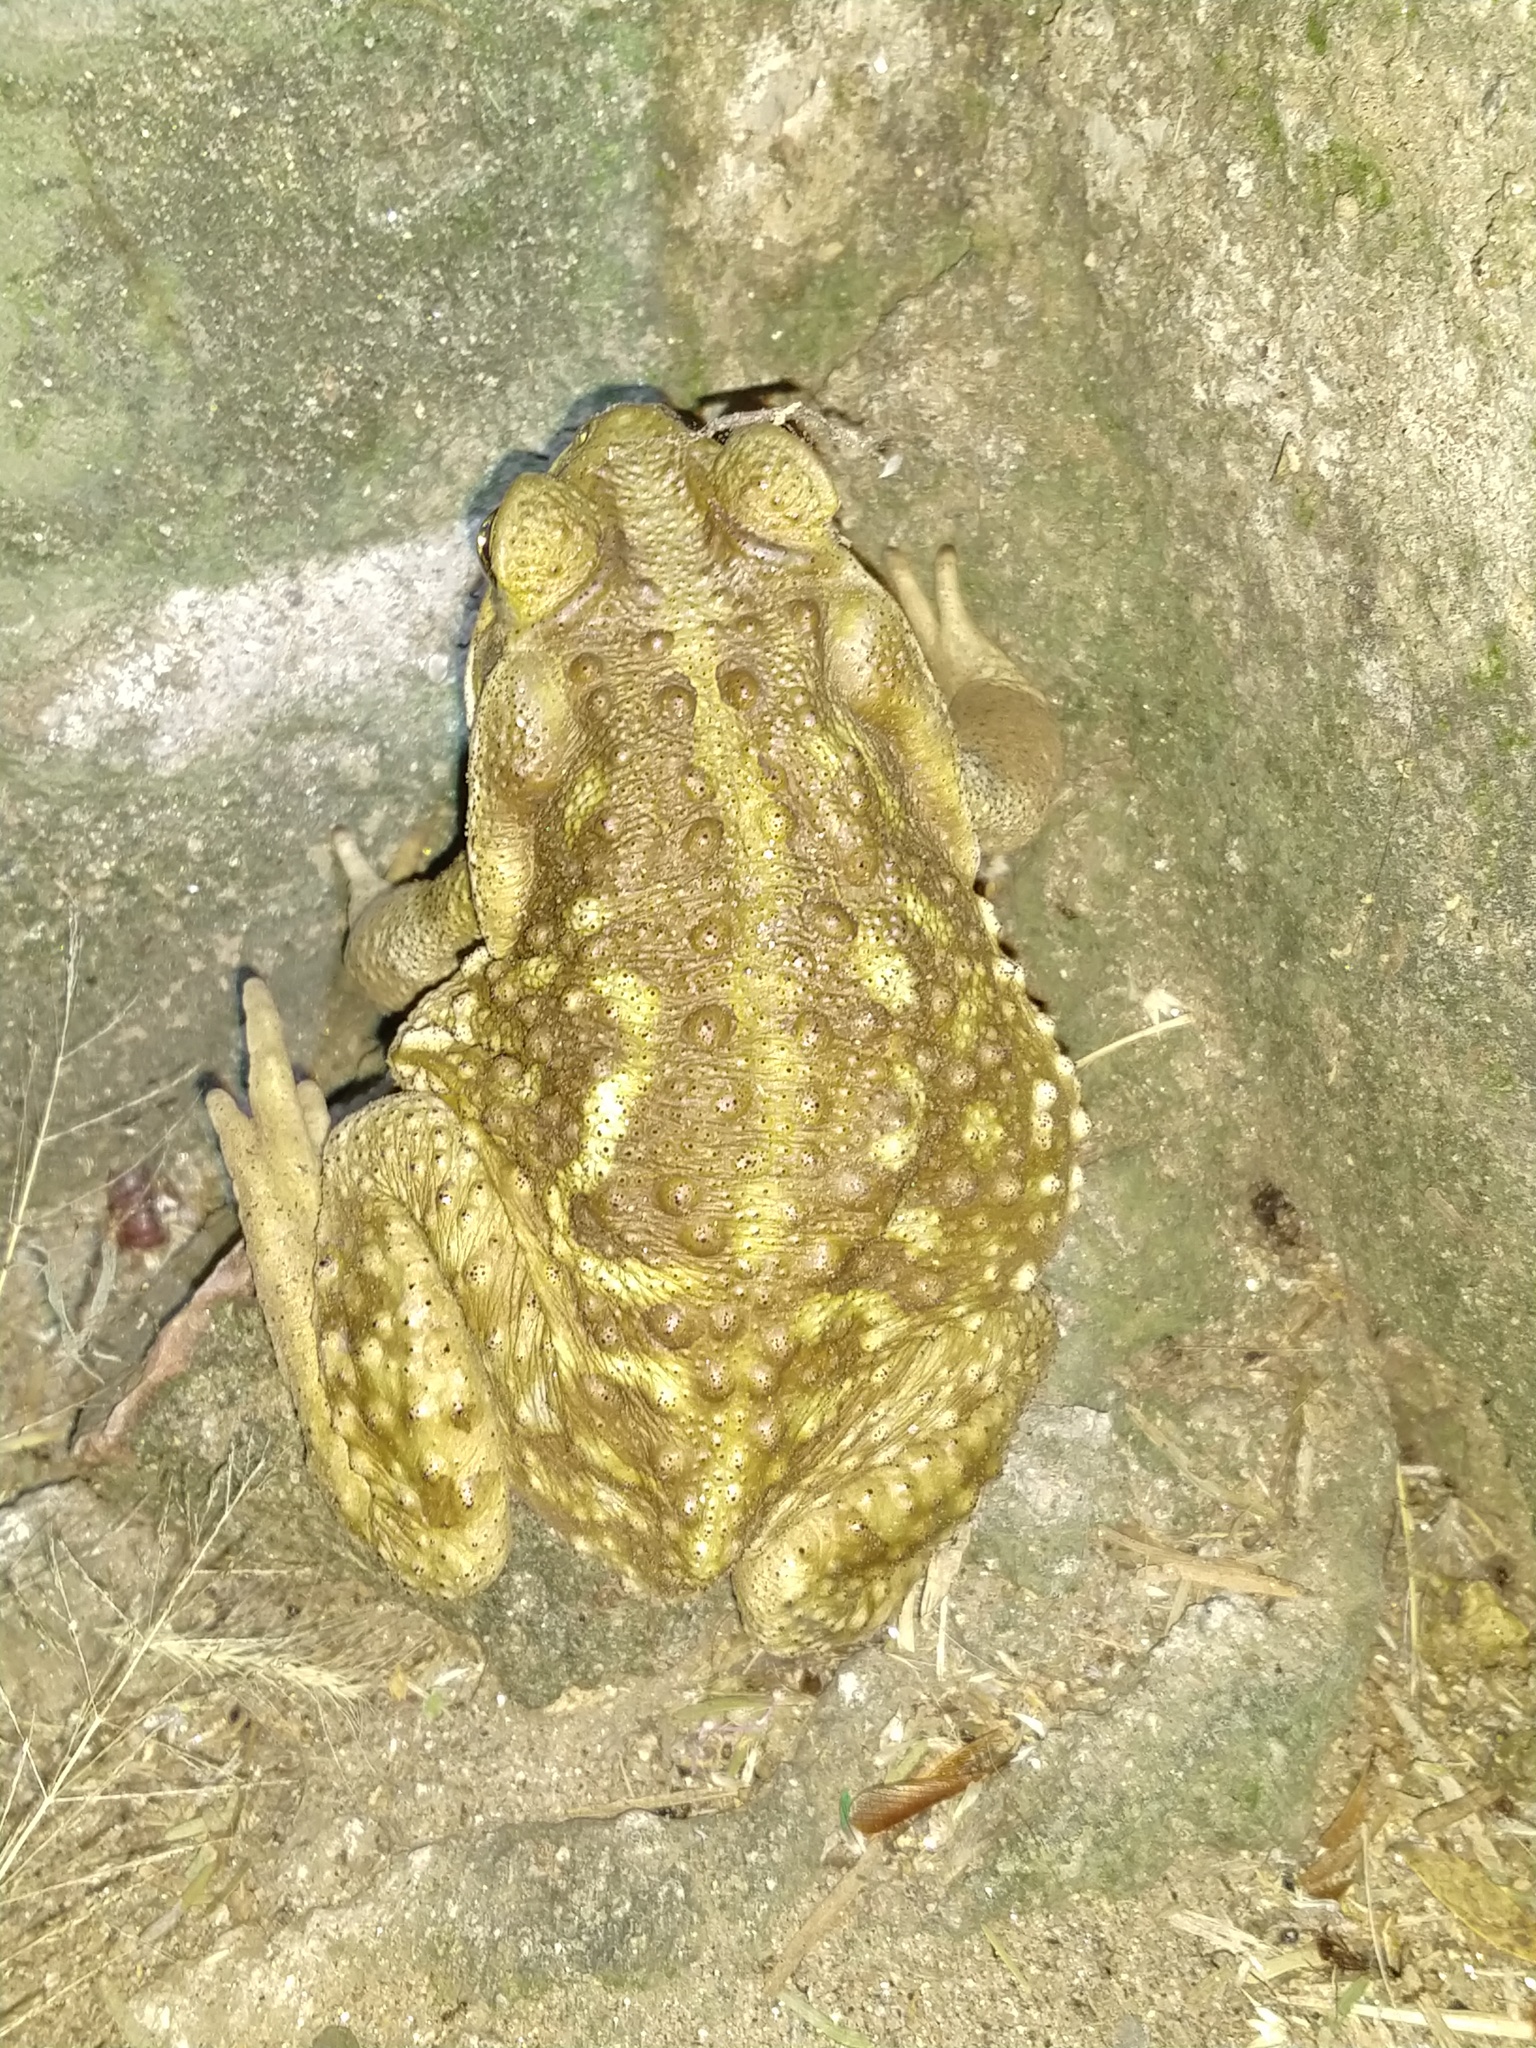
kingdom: Animalia
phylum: Chordata
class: Amphibia
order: Anura
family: Bufonidae
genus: Rhinella
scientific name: Rhinella arenarum
